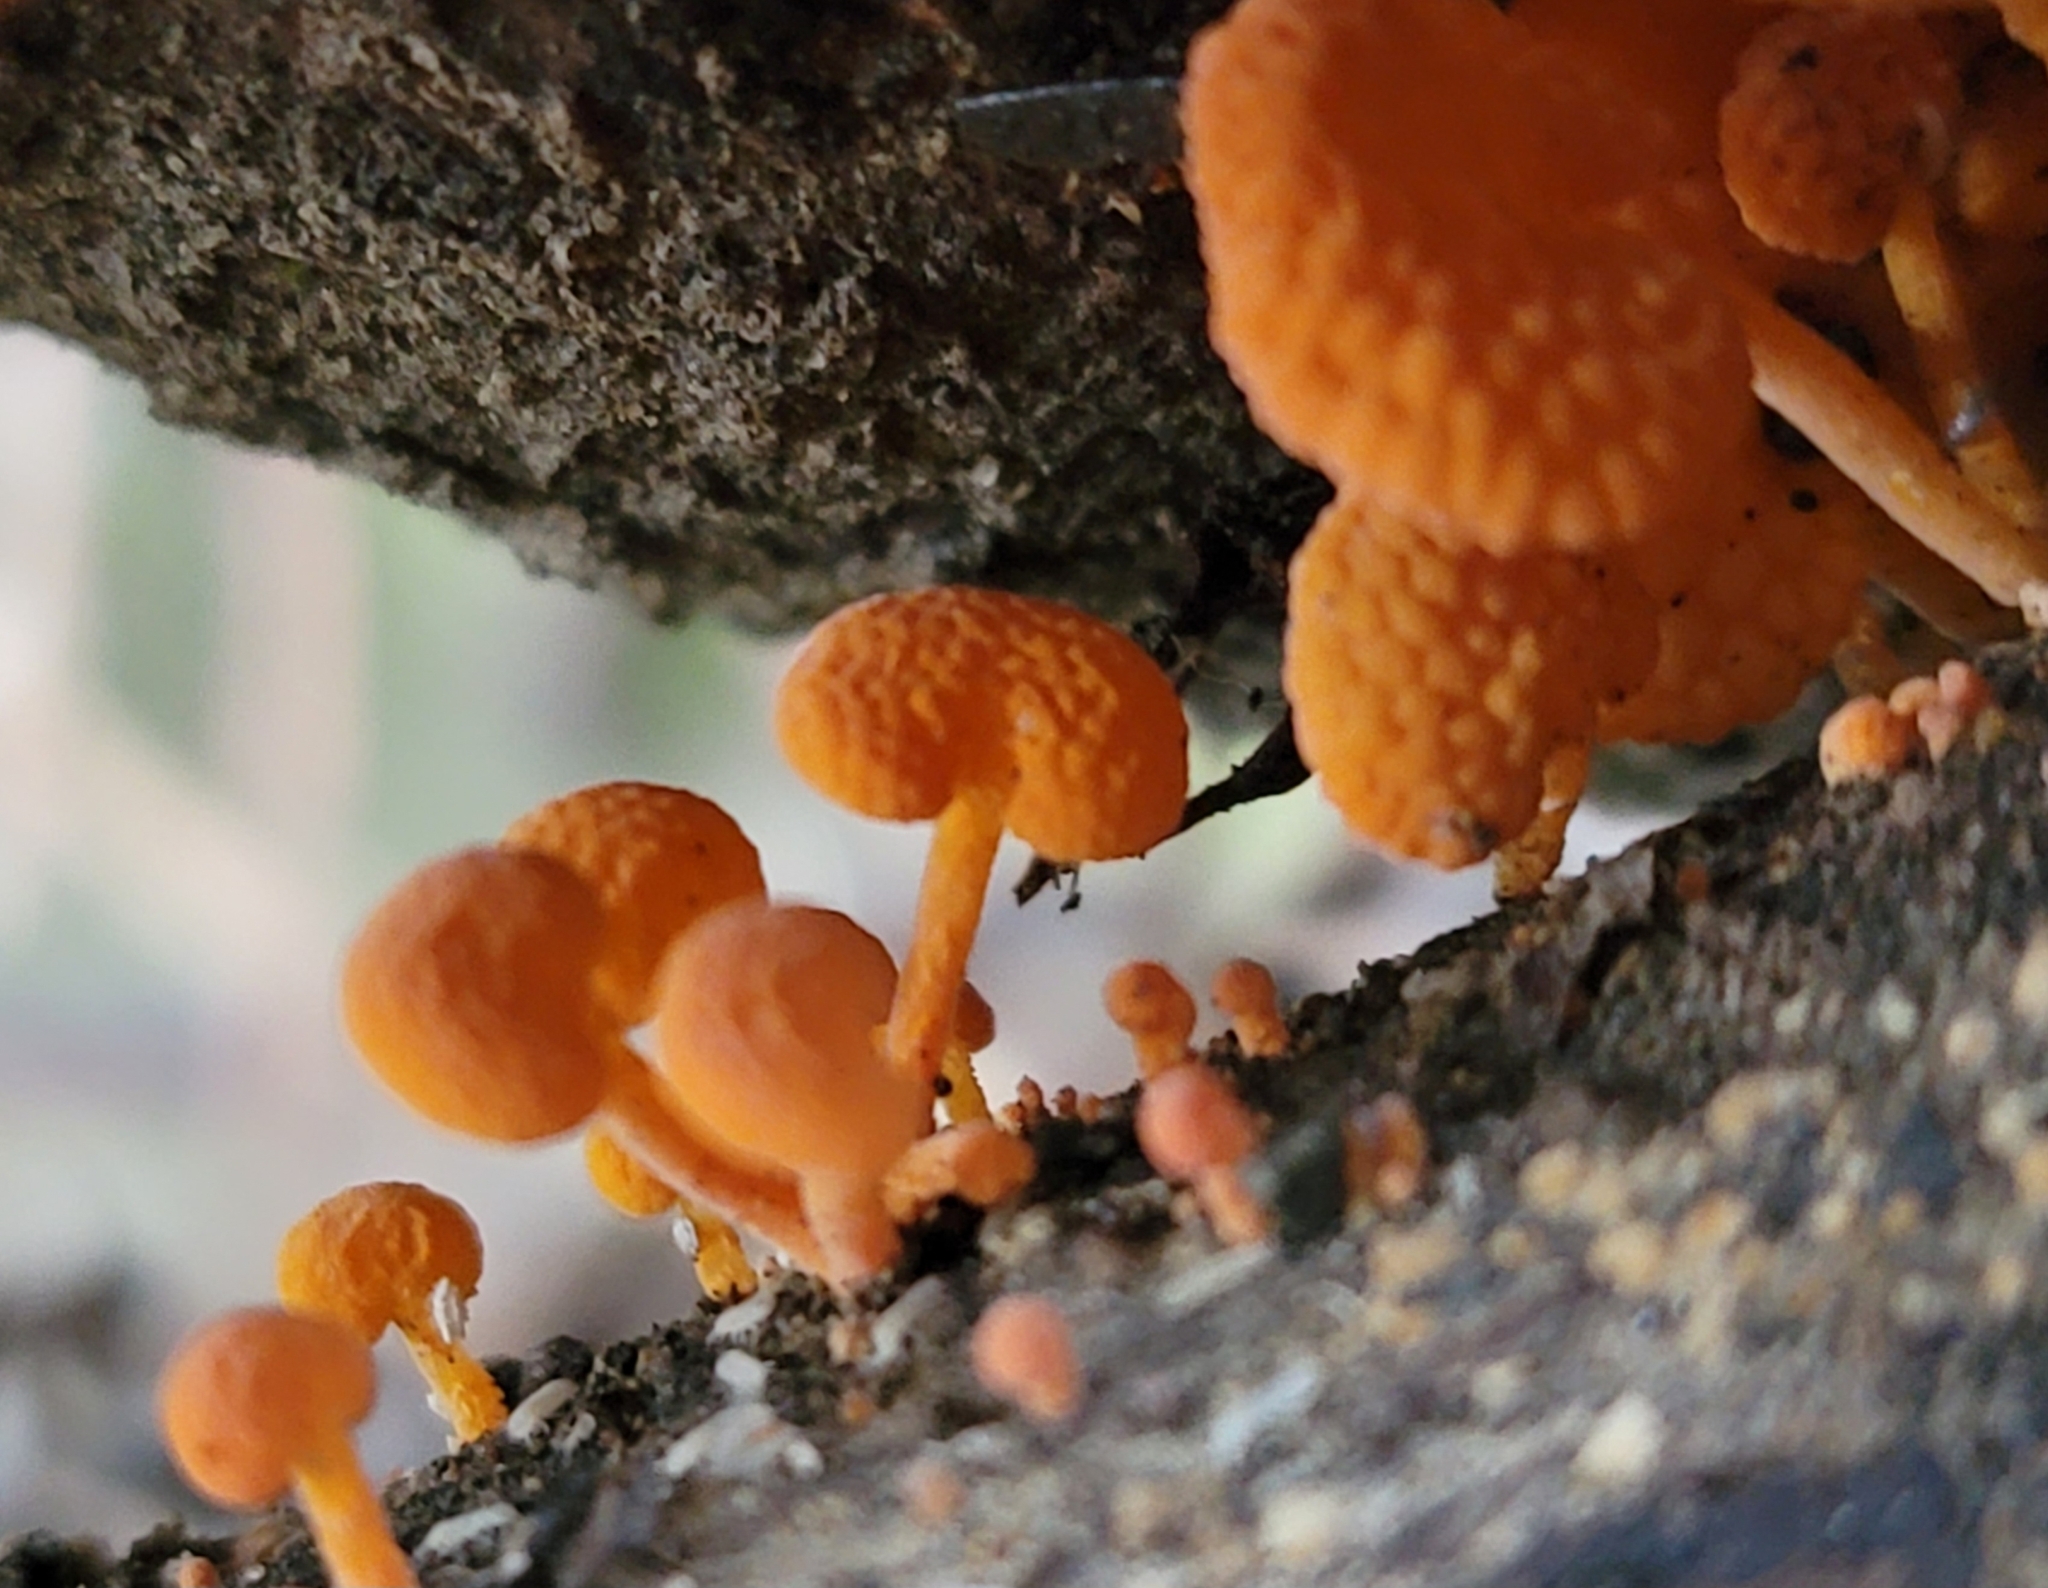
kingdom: Fungi
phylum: Basidiomycota
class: Agaricomycetes
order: Agaricales
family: Mycenaceae
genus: Favolaschia
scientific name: Favolaschia claudopus
